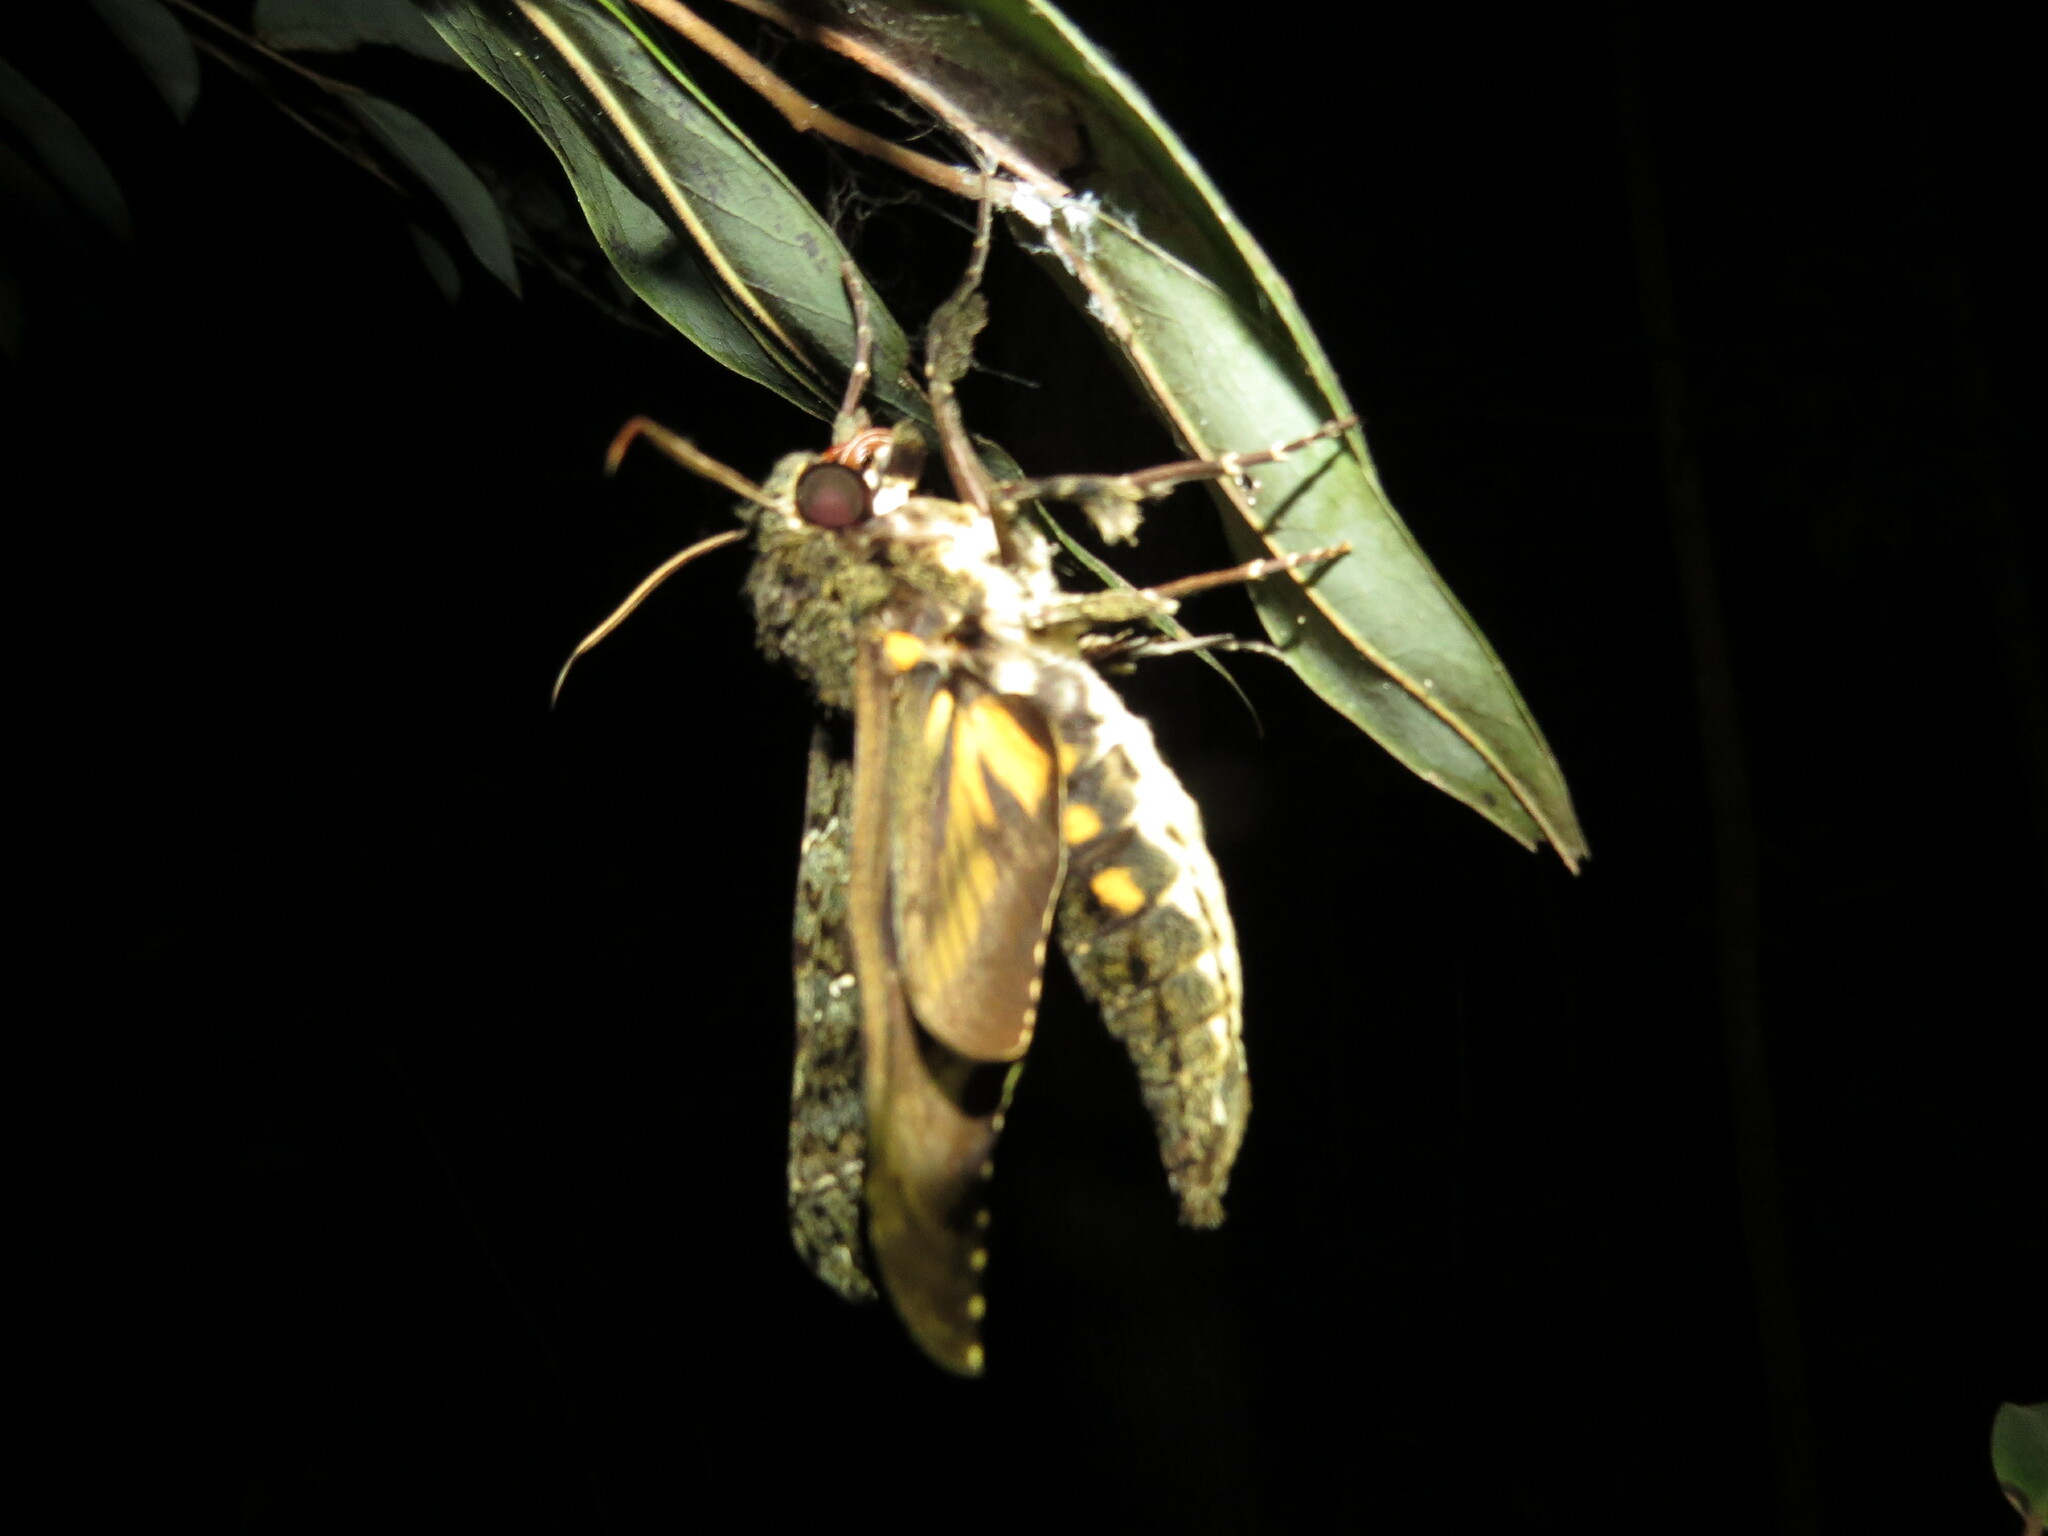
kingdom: Animalia
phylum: Arthropoda
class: Insecta
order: Lepidoptera
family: Sphingidae
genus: Cocytius
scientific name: Cocytius duponchel
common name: Duponchel's sphinx
